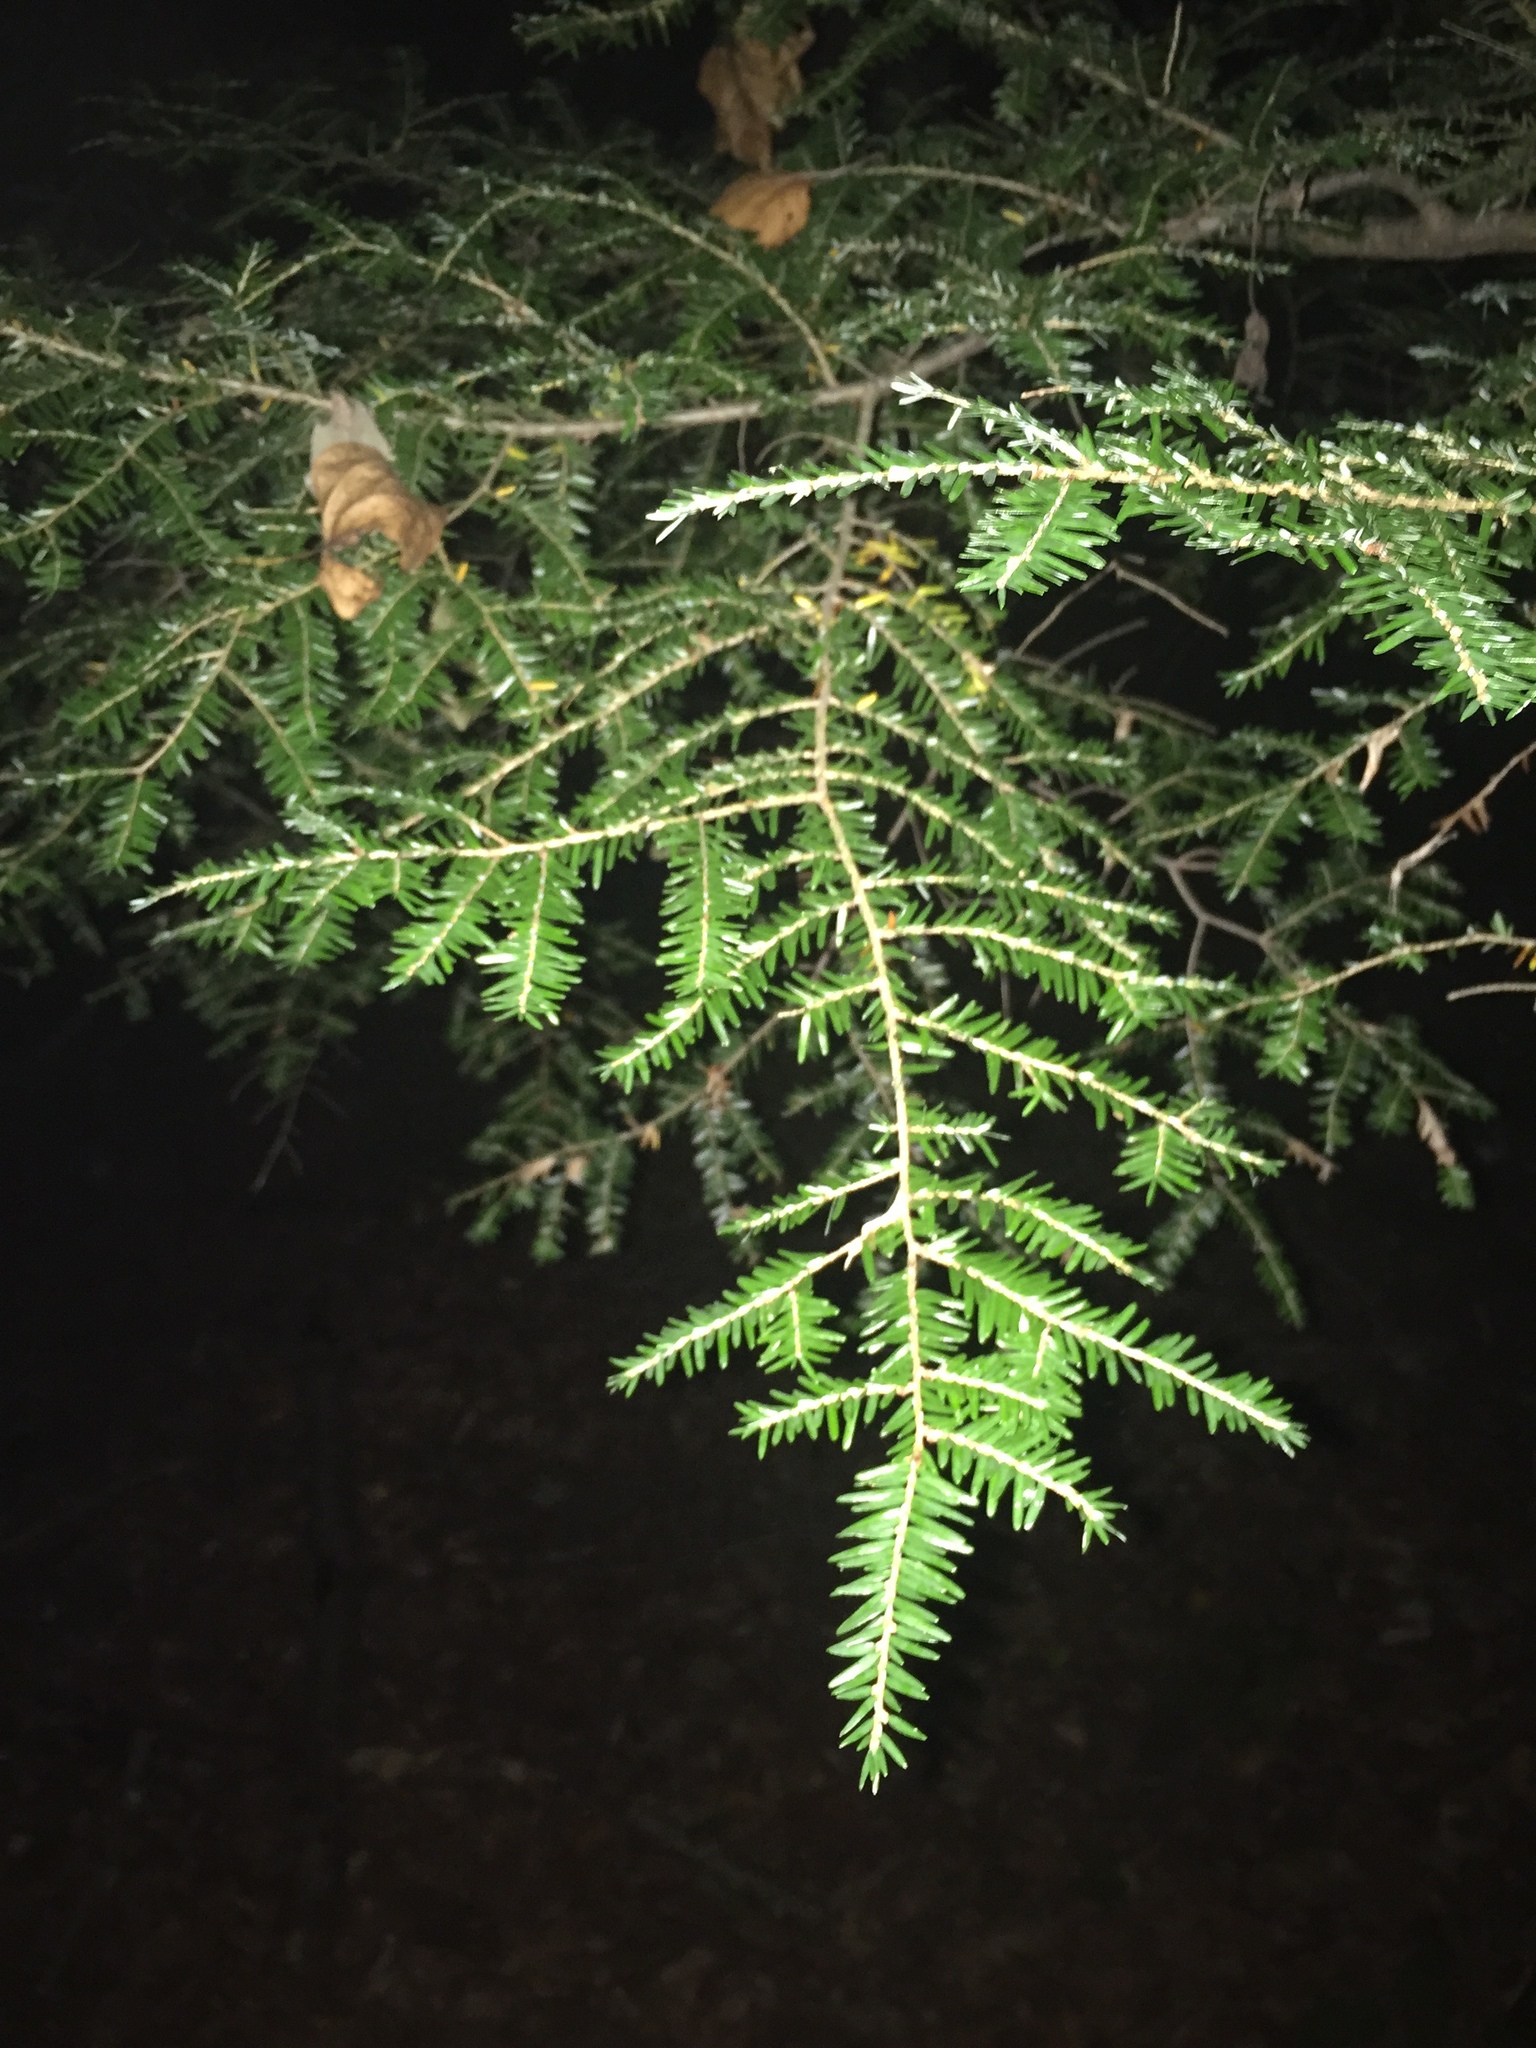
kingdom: Plantae
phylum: Tracheophyta
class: Pinopsida
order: Pinales
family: Pinaceae
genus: Tsuga
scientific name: Tsuga canadensis
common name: Eastern hemlock
